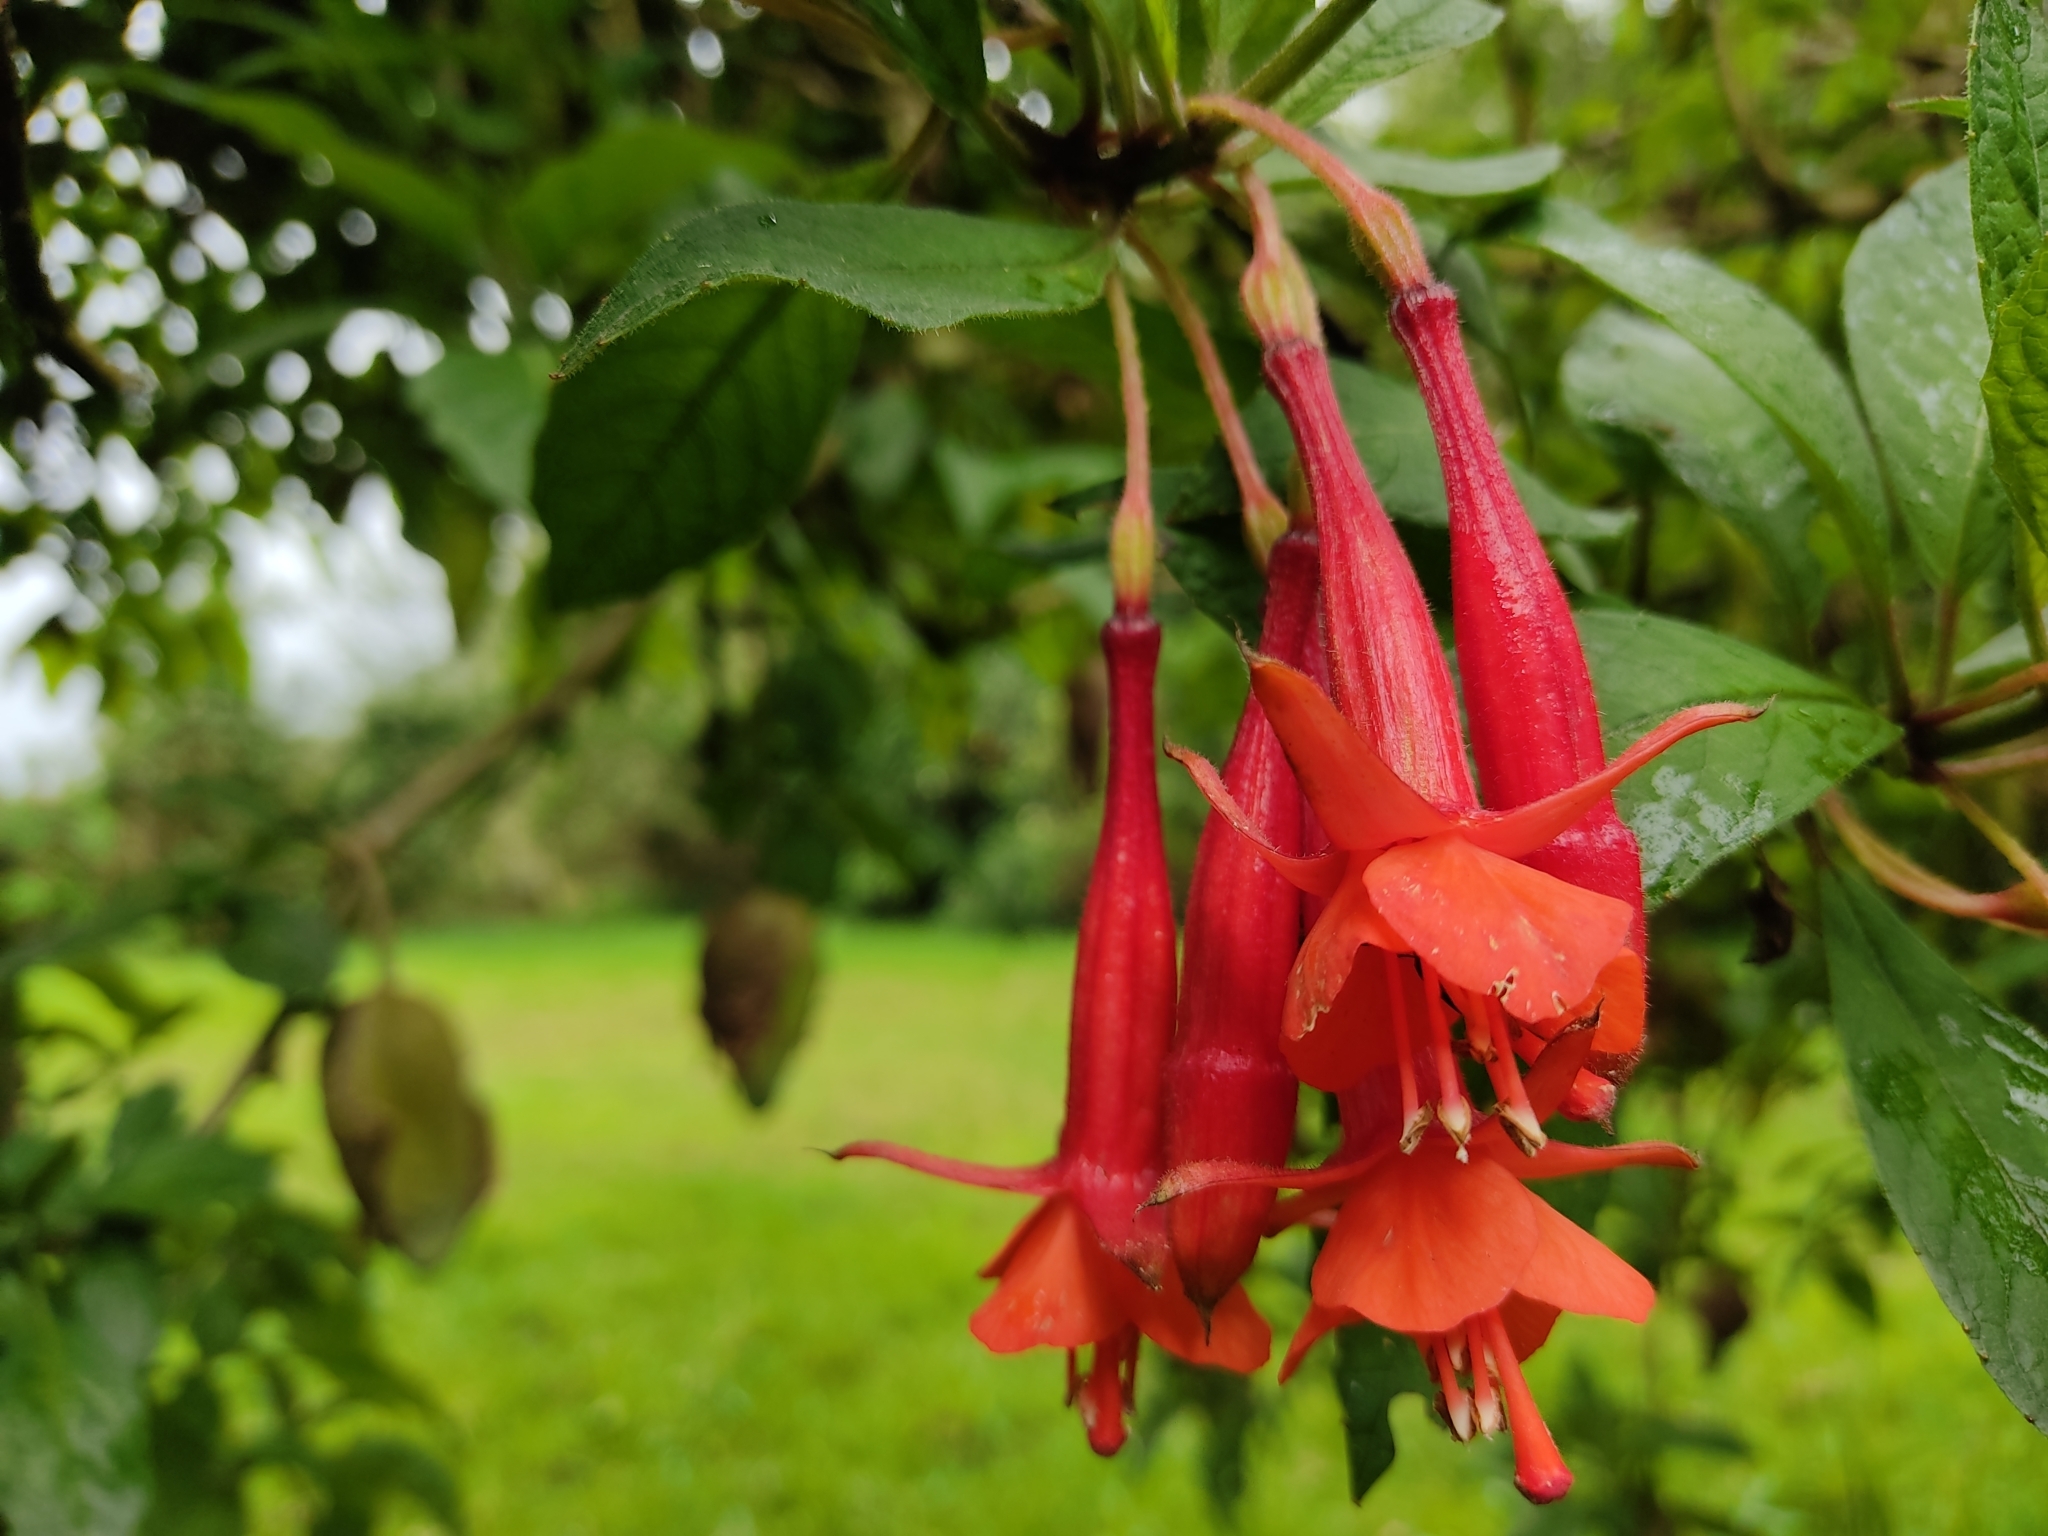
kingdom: Plantae
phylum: Tracheophyta
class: Magnoliopsida
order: Myrtales
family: Onagraceae
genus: Fuchsia
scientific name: Fuchsia loxensis
